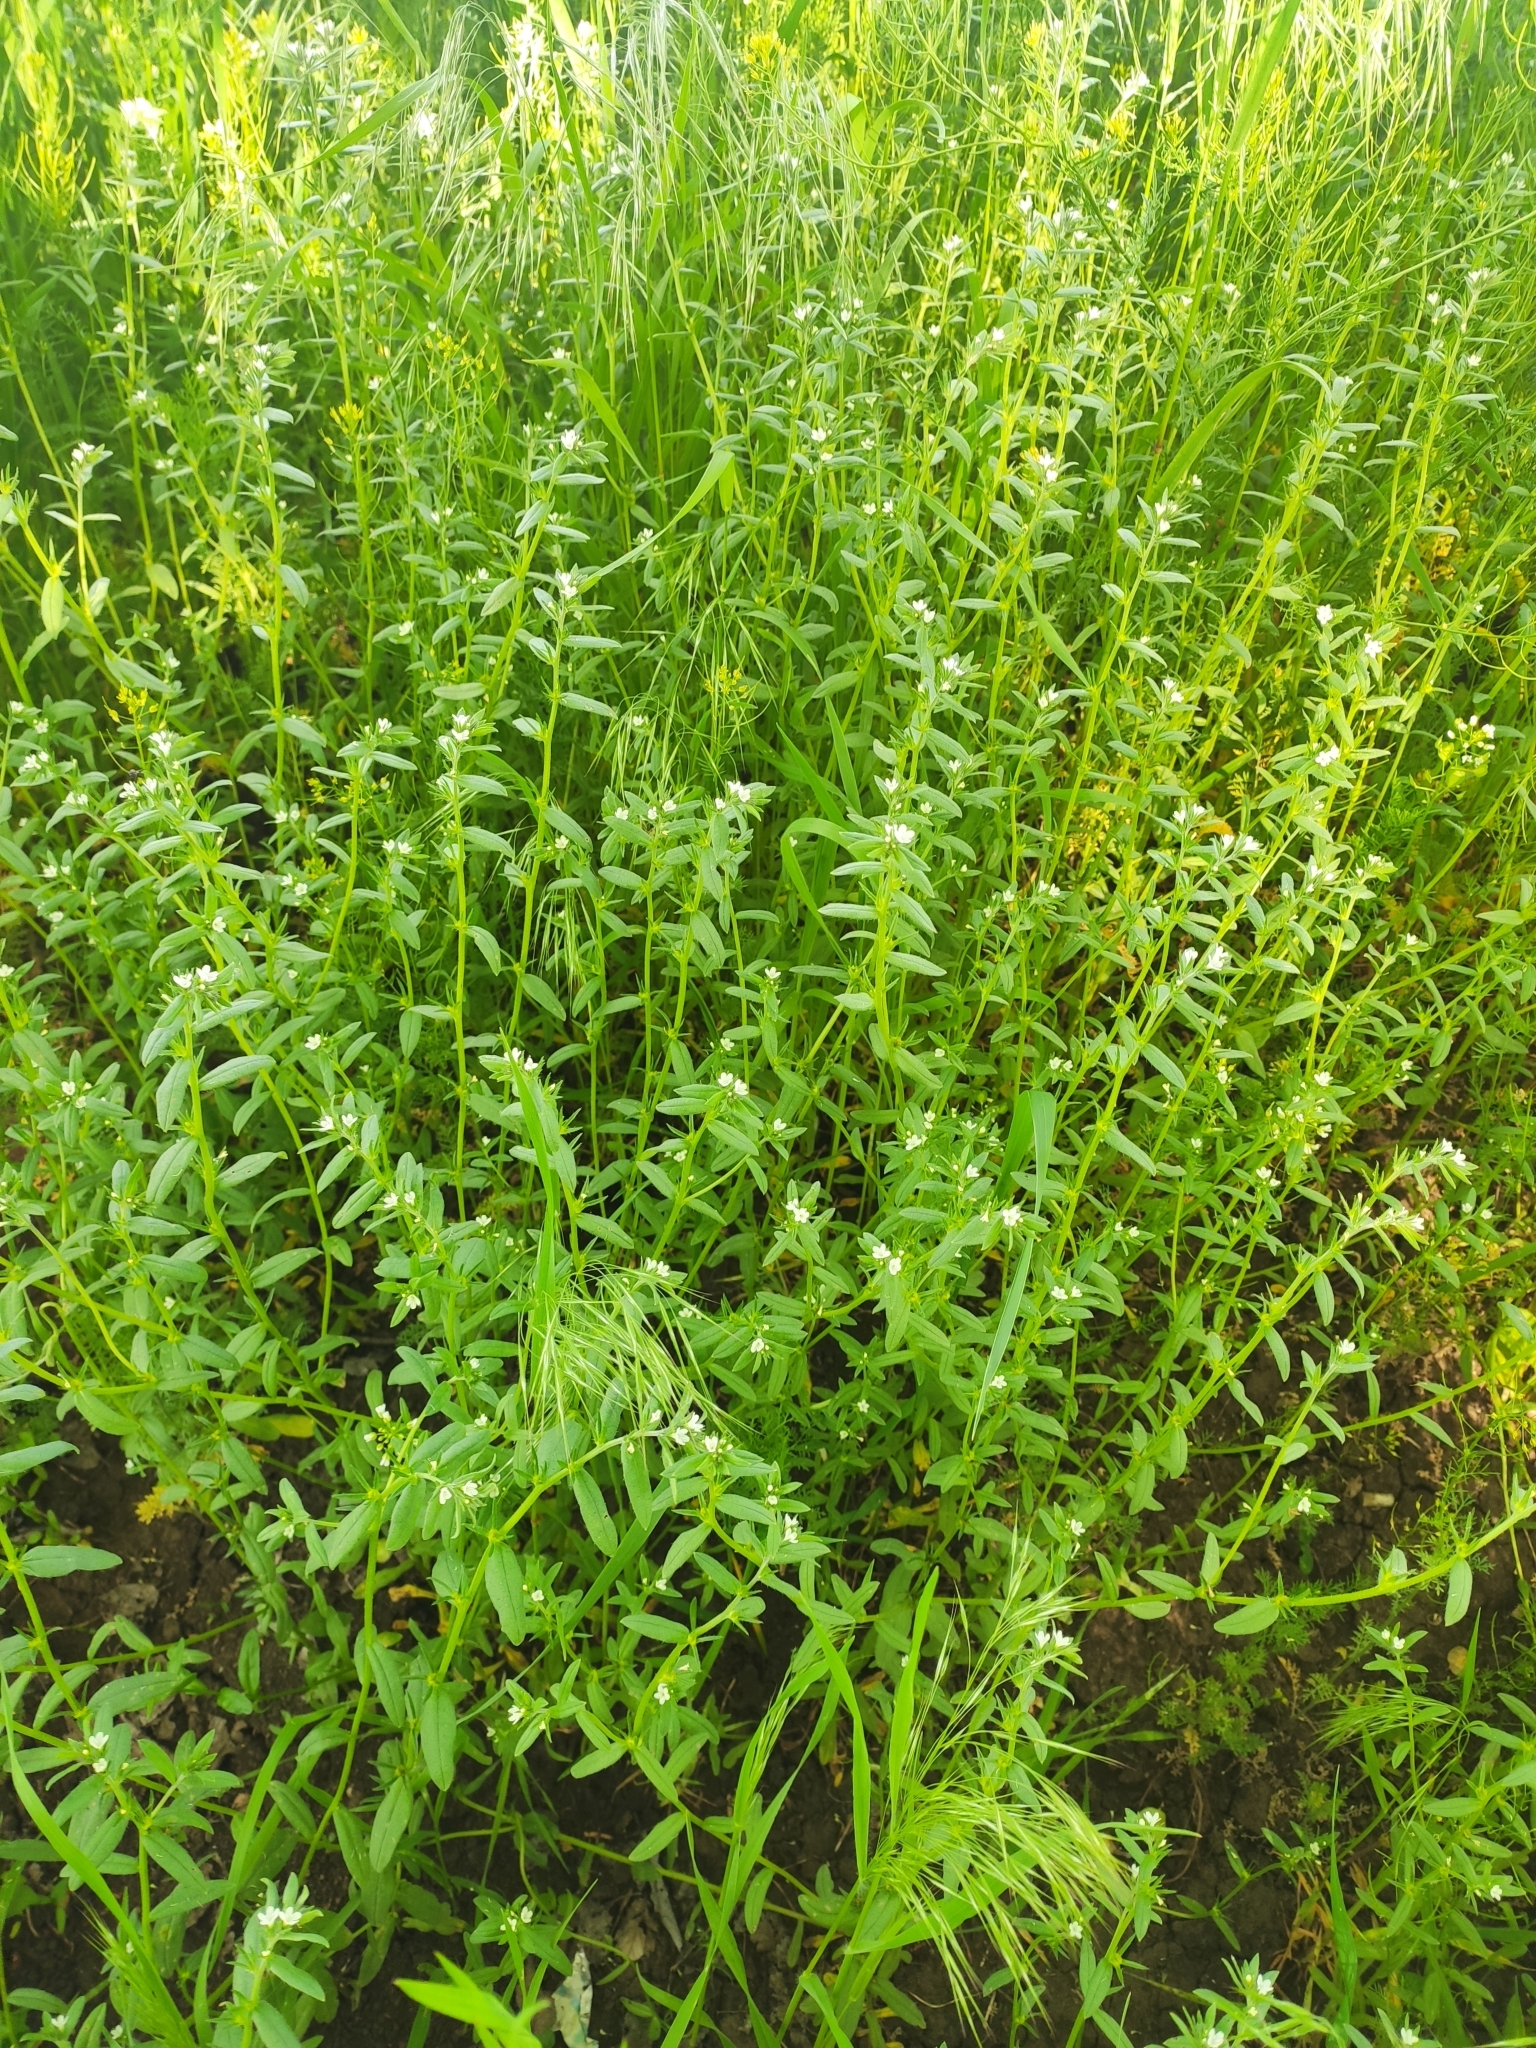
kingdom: Plantae
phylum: Tracheophyta
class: Magnoliopsida
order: Boraginales
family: Boraginaceae
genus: Buglossoides
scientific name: Buglossoides arvensis
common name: Corn gromwell
